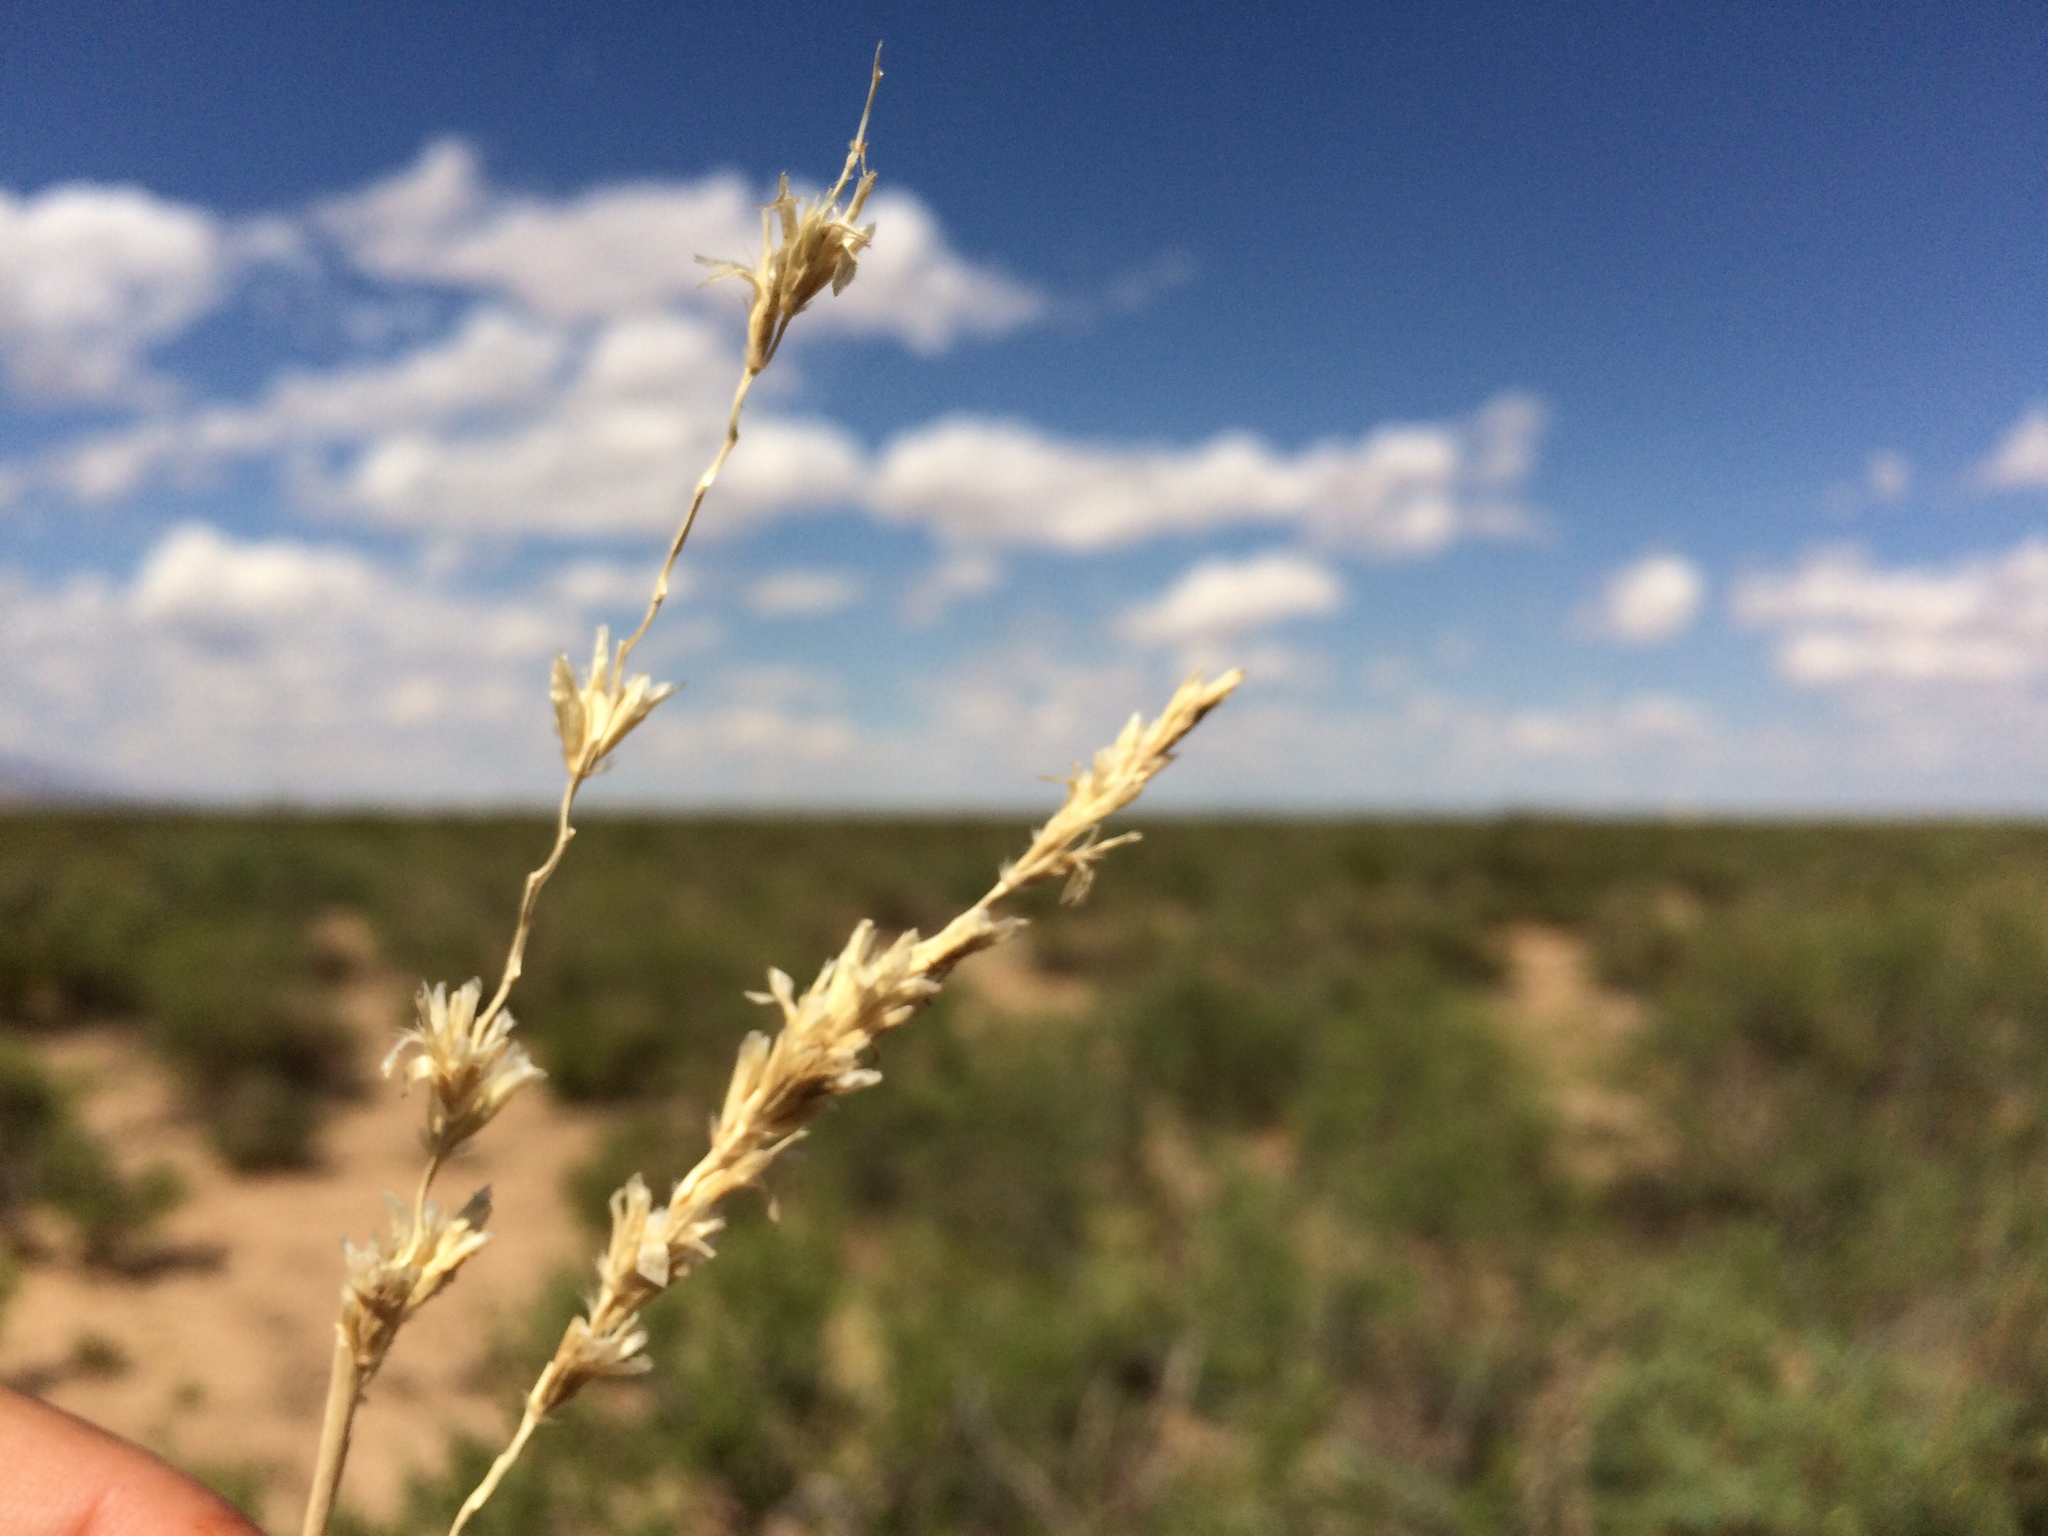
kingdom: Plantae
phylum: Tracheophyta
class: Liliopsida
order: Poales
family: Poaceae
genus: Hilaria
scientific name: Hilaria mutica
